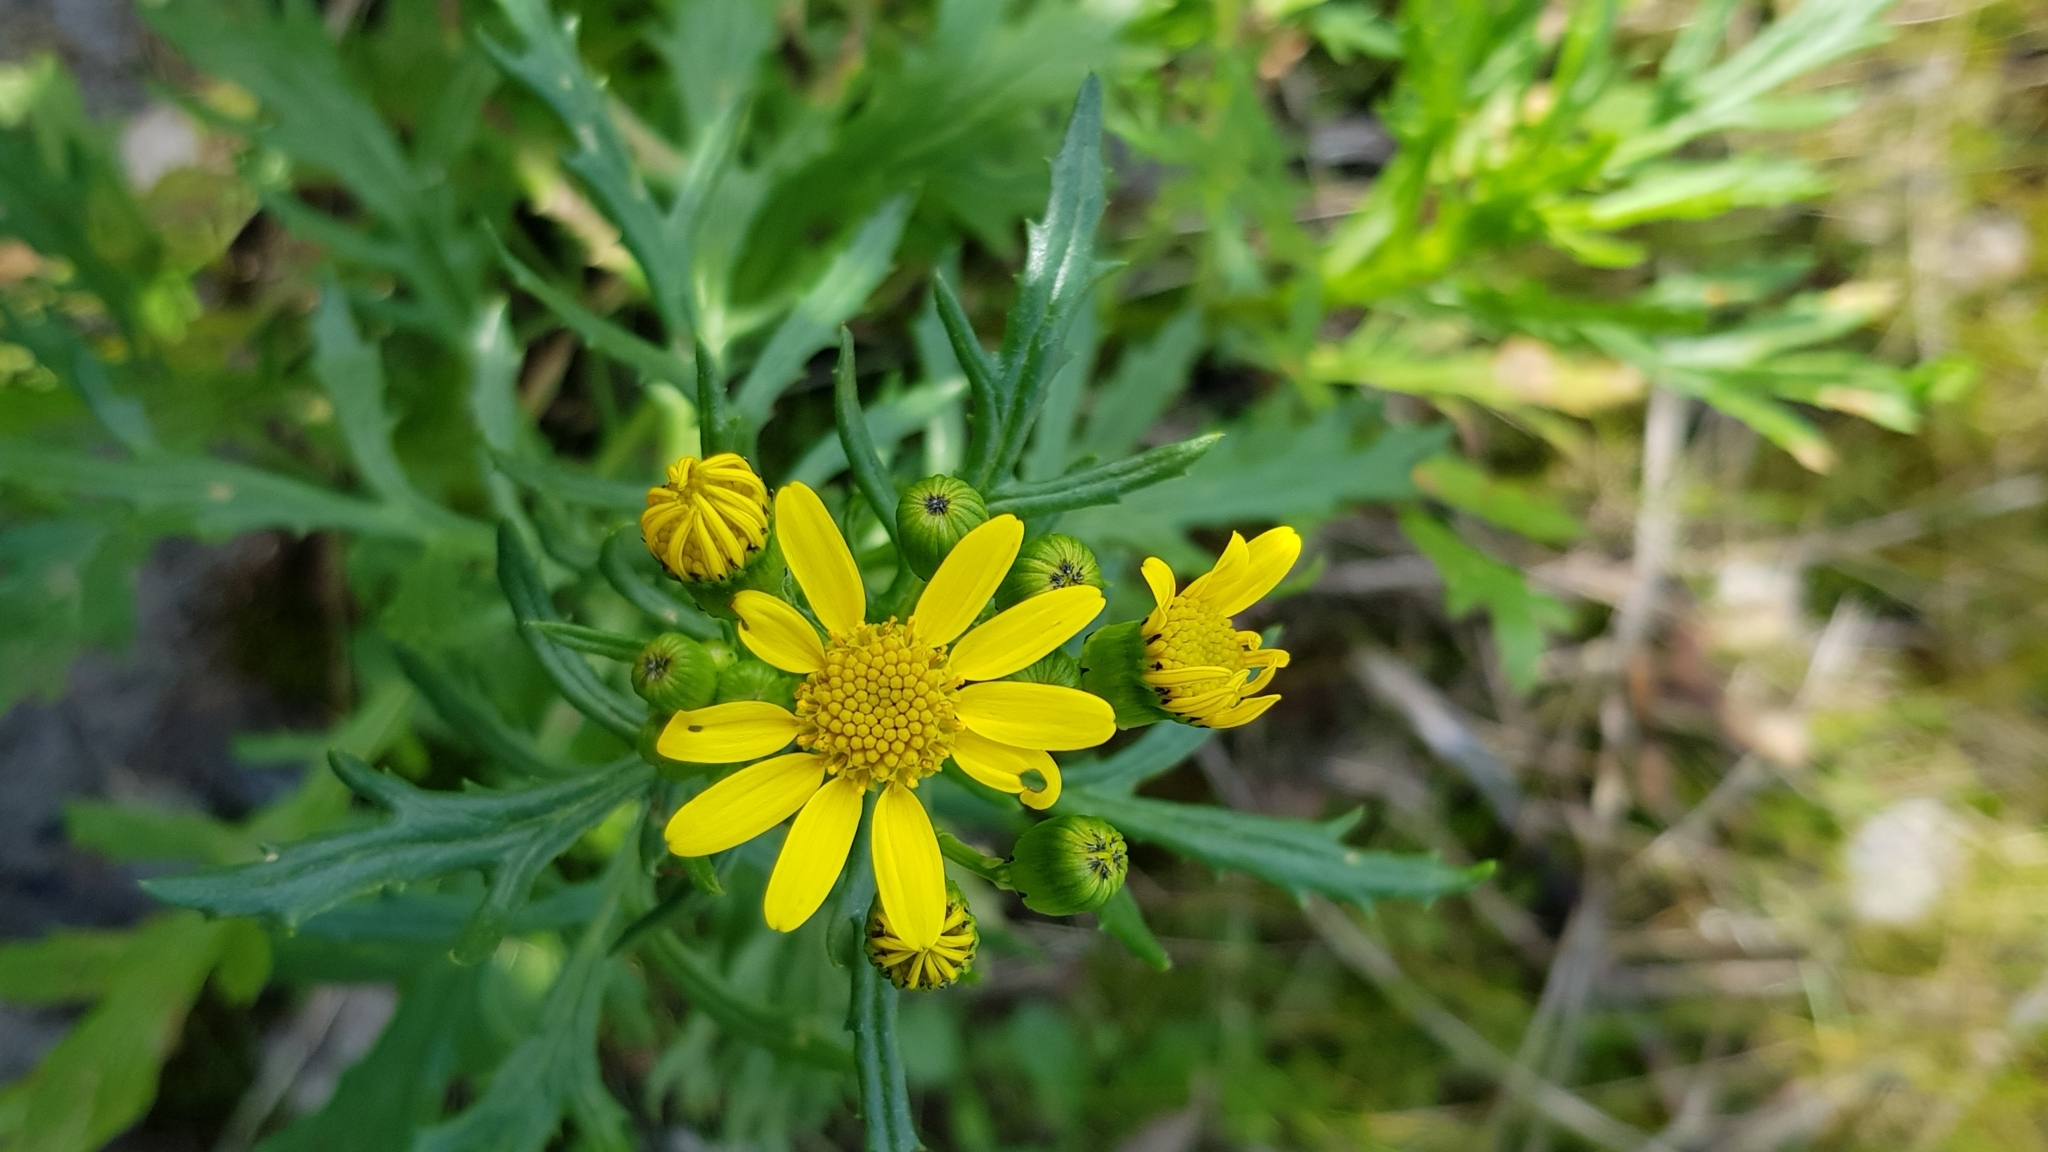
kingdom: Plantae
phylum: Tracheophyta
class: Magnoliopsida
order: Asterales
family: Asteraceae
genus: Jacobaea
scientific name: Jacobaea erucifolia
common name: Hoary ragwort
